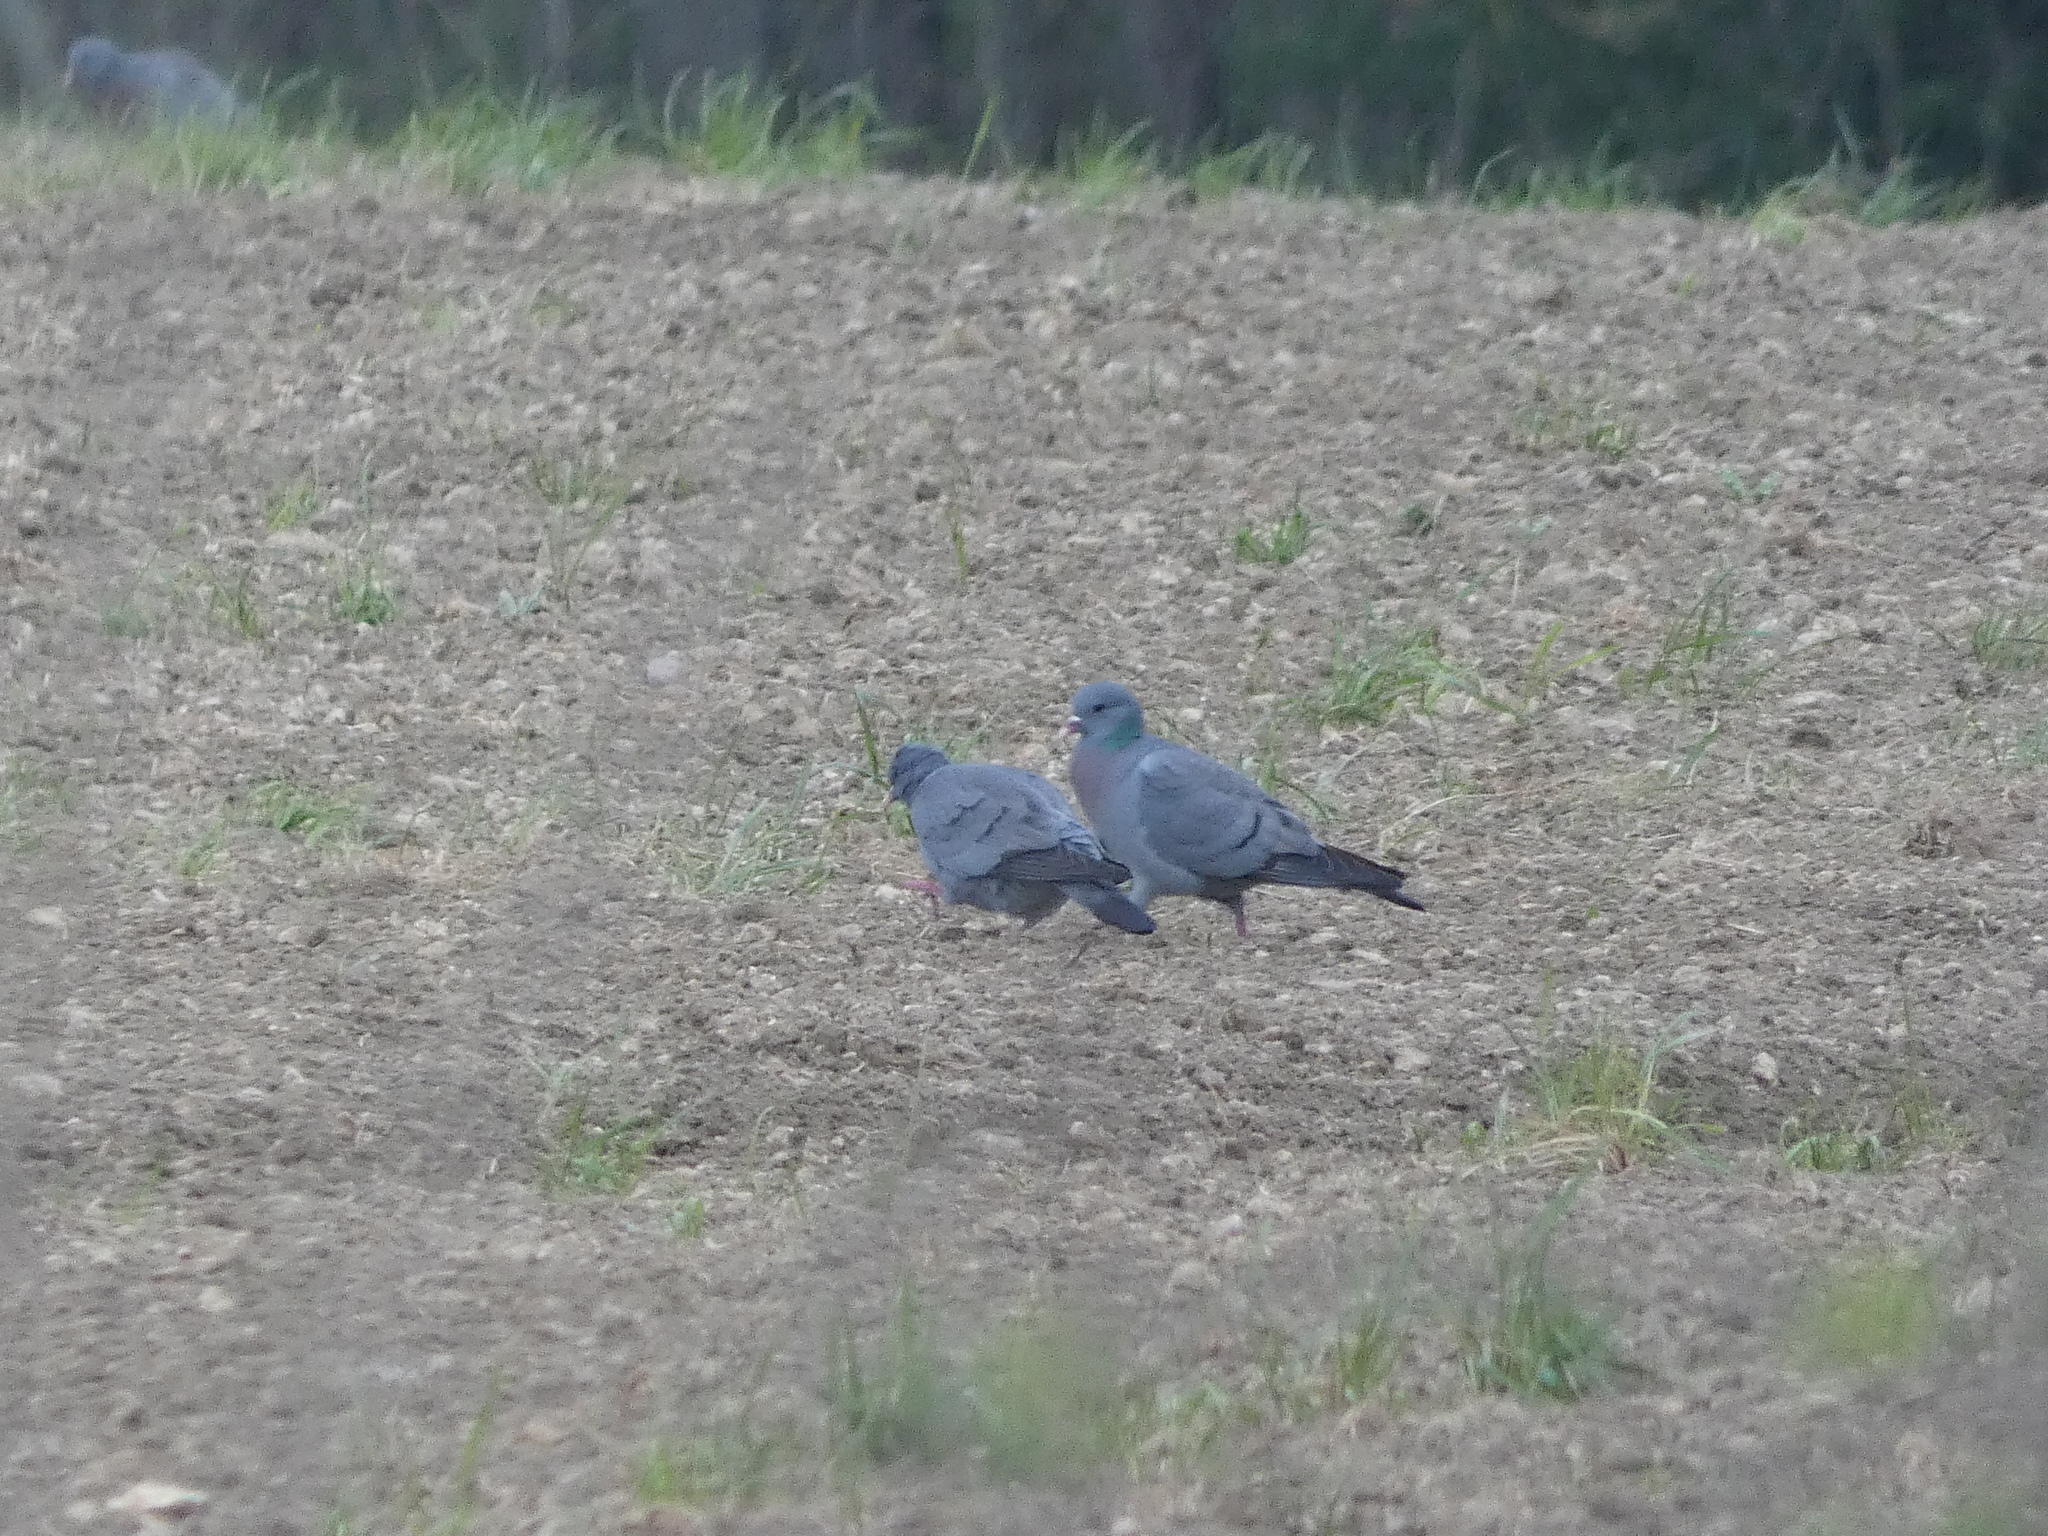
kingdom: Animalia
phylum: Chordata
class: Aves
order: Columbiformes
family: Columbidae
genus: Columba
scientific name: Columba oenas
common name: Stock dove
